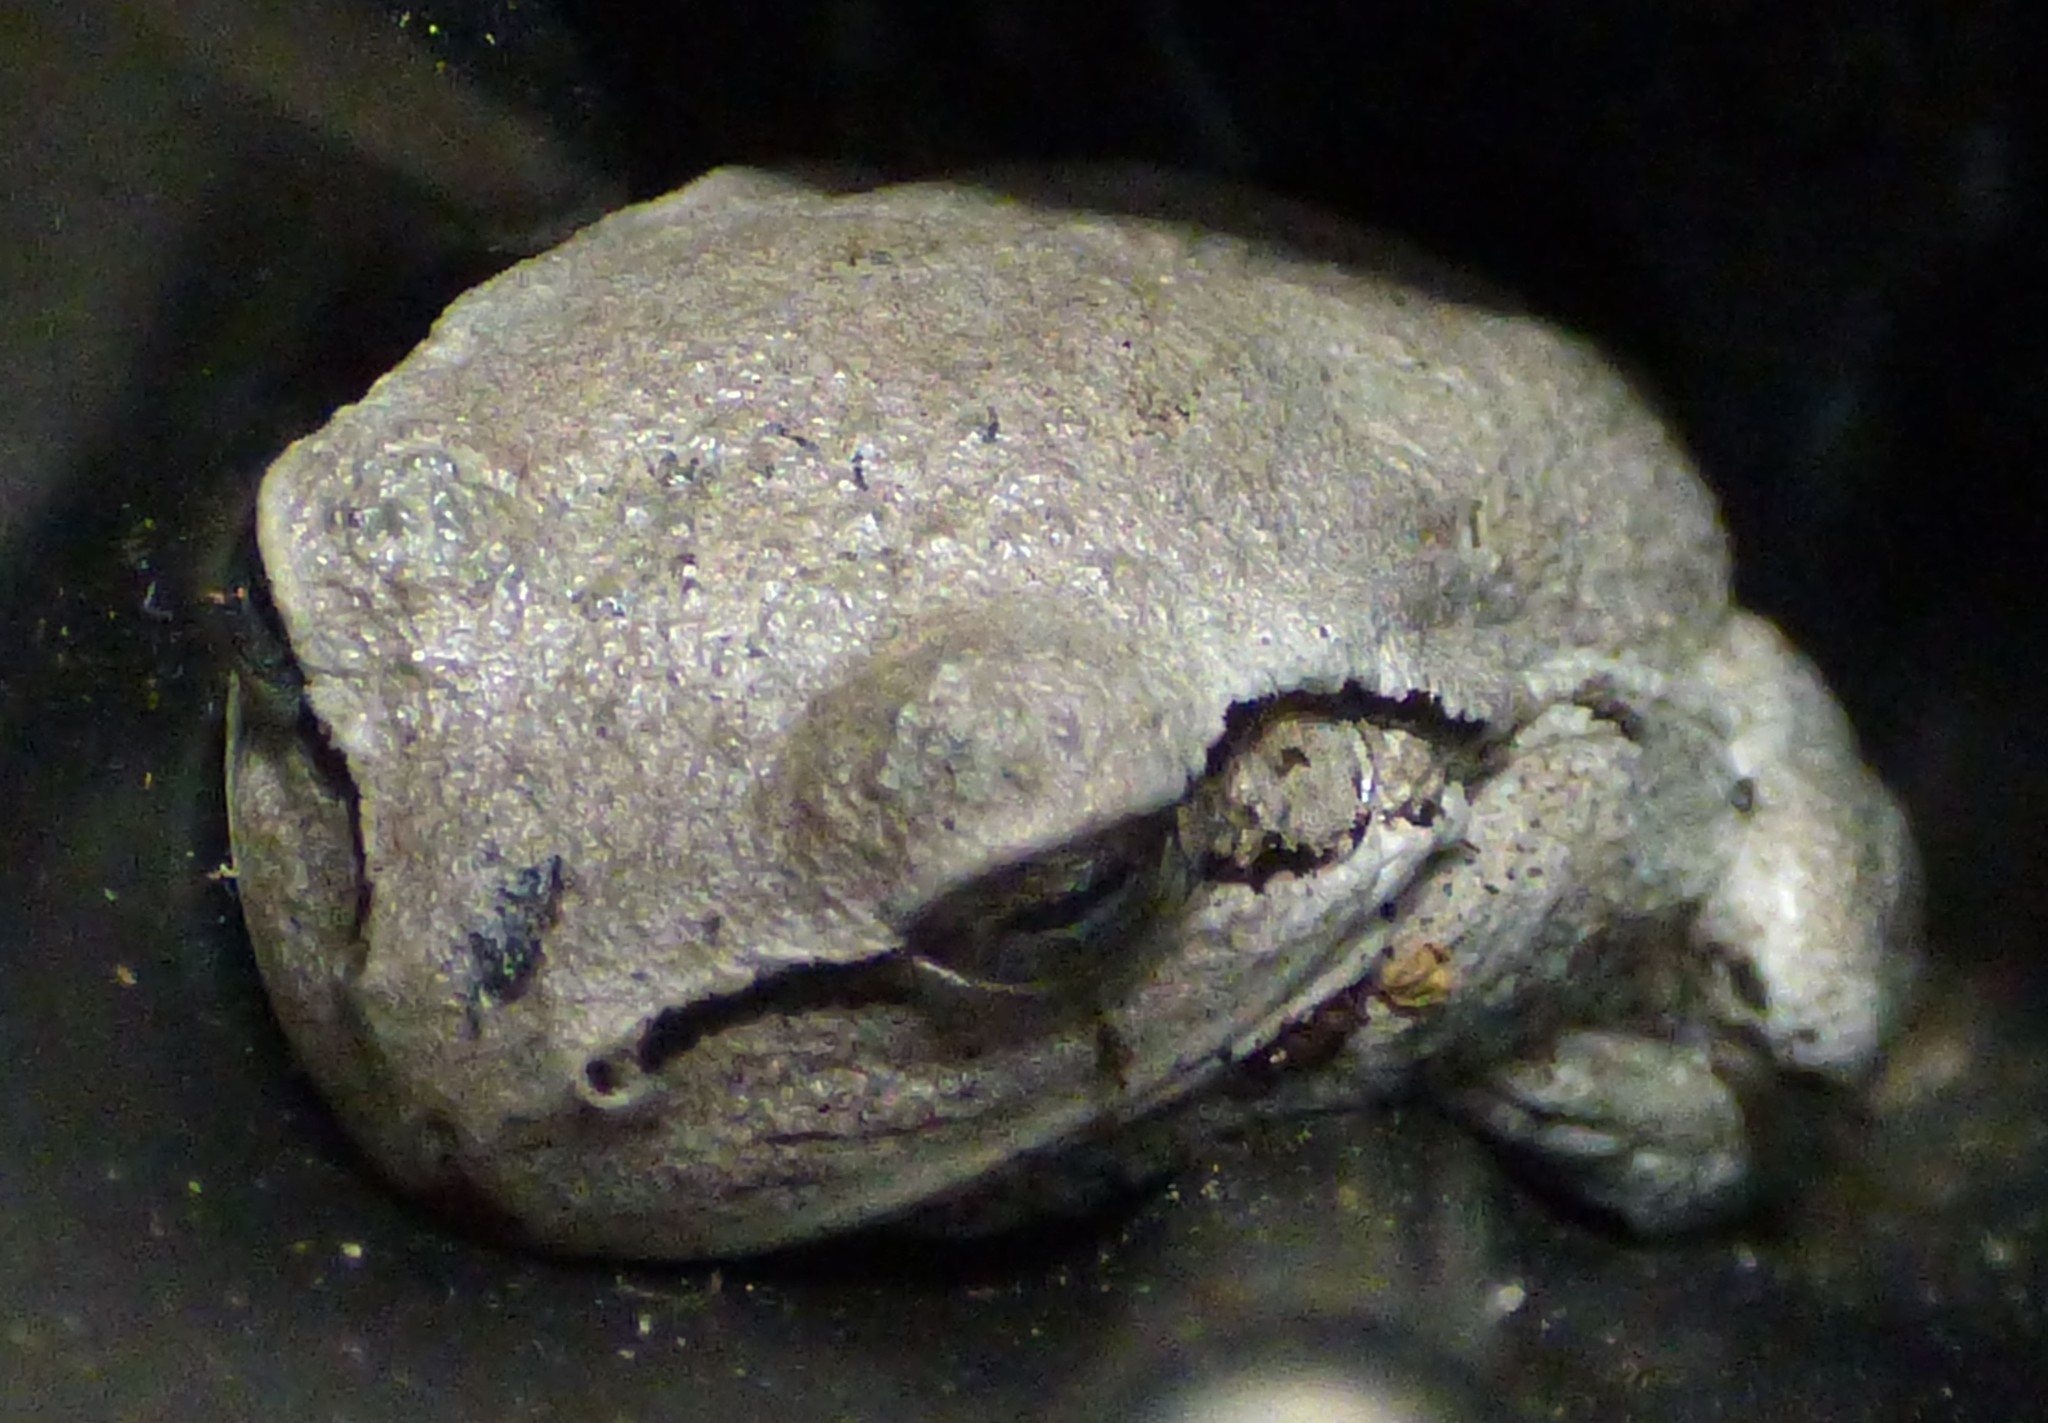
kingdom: Animalia
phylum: Chordata
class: Amphibia
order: Anura
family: Hylidae
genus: Hyla
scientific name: Hyla femoralis
